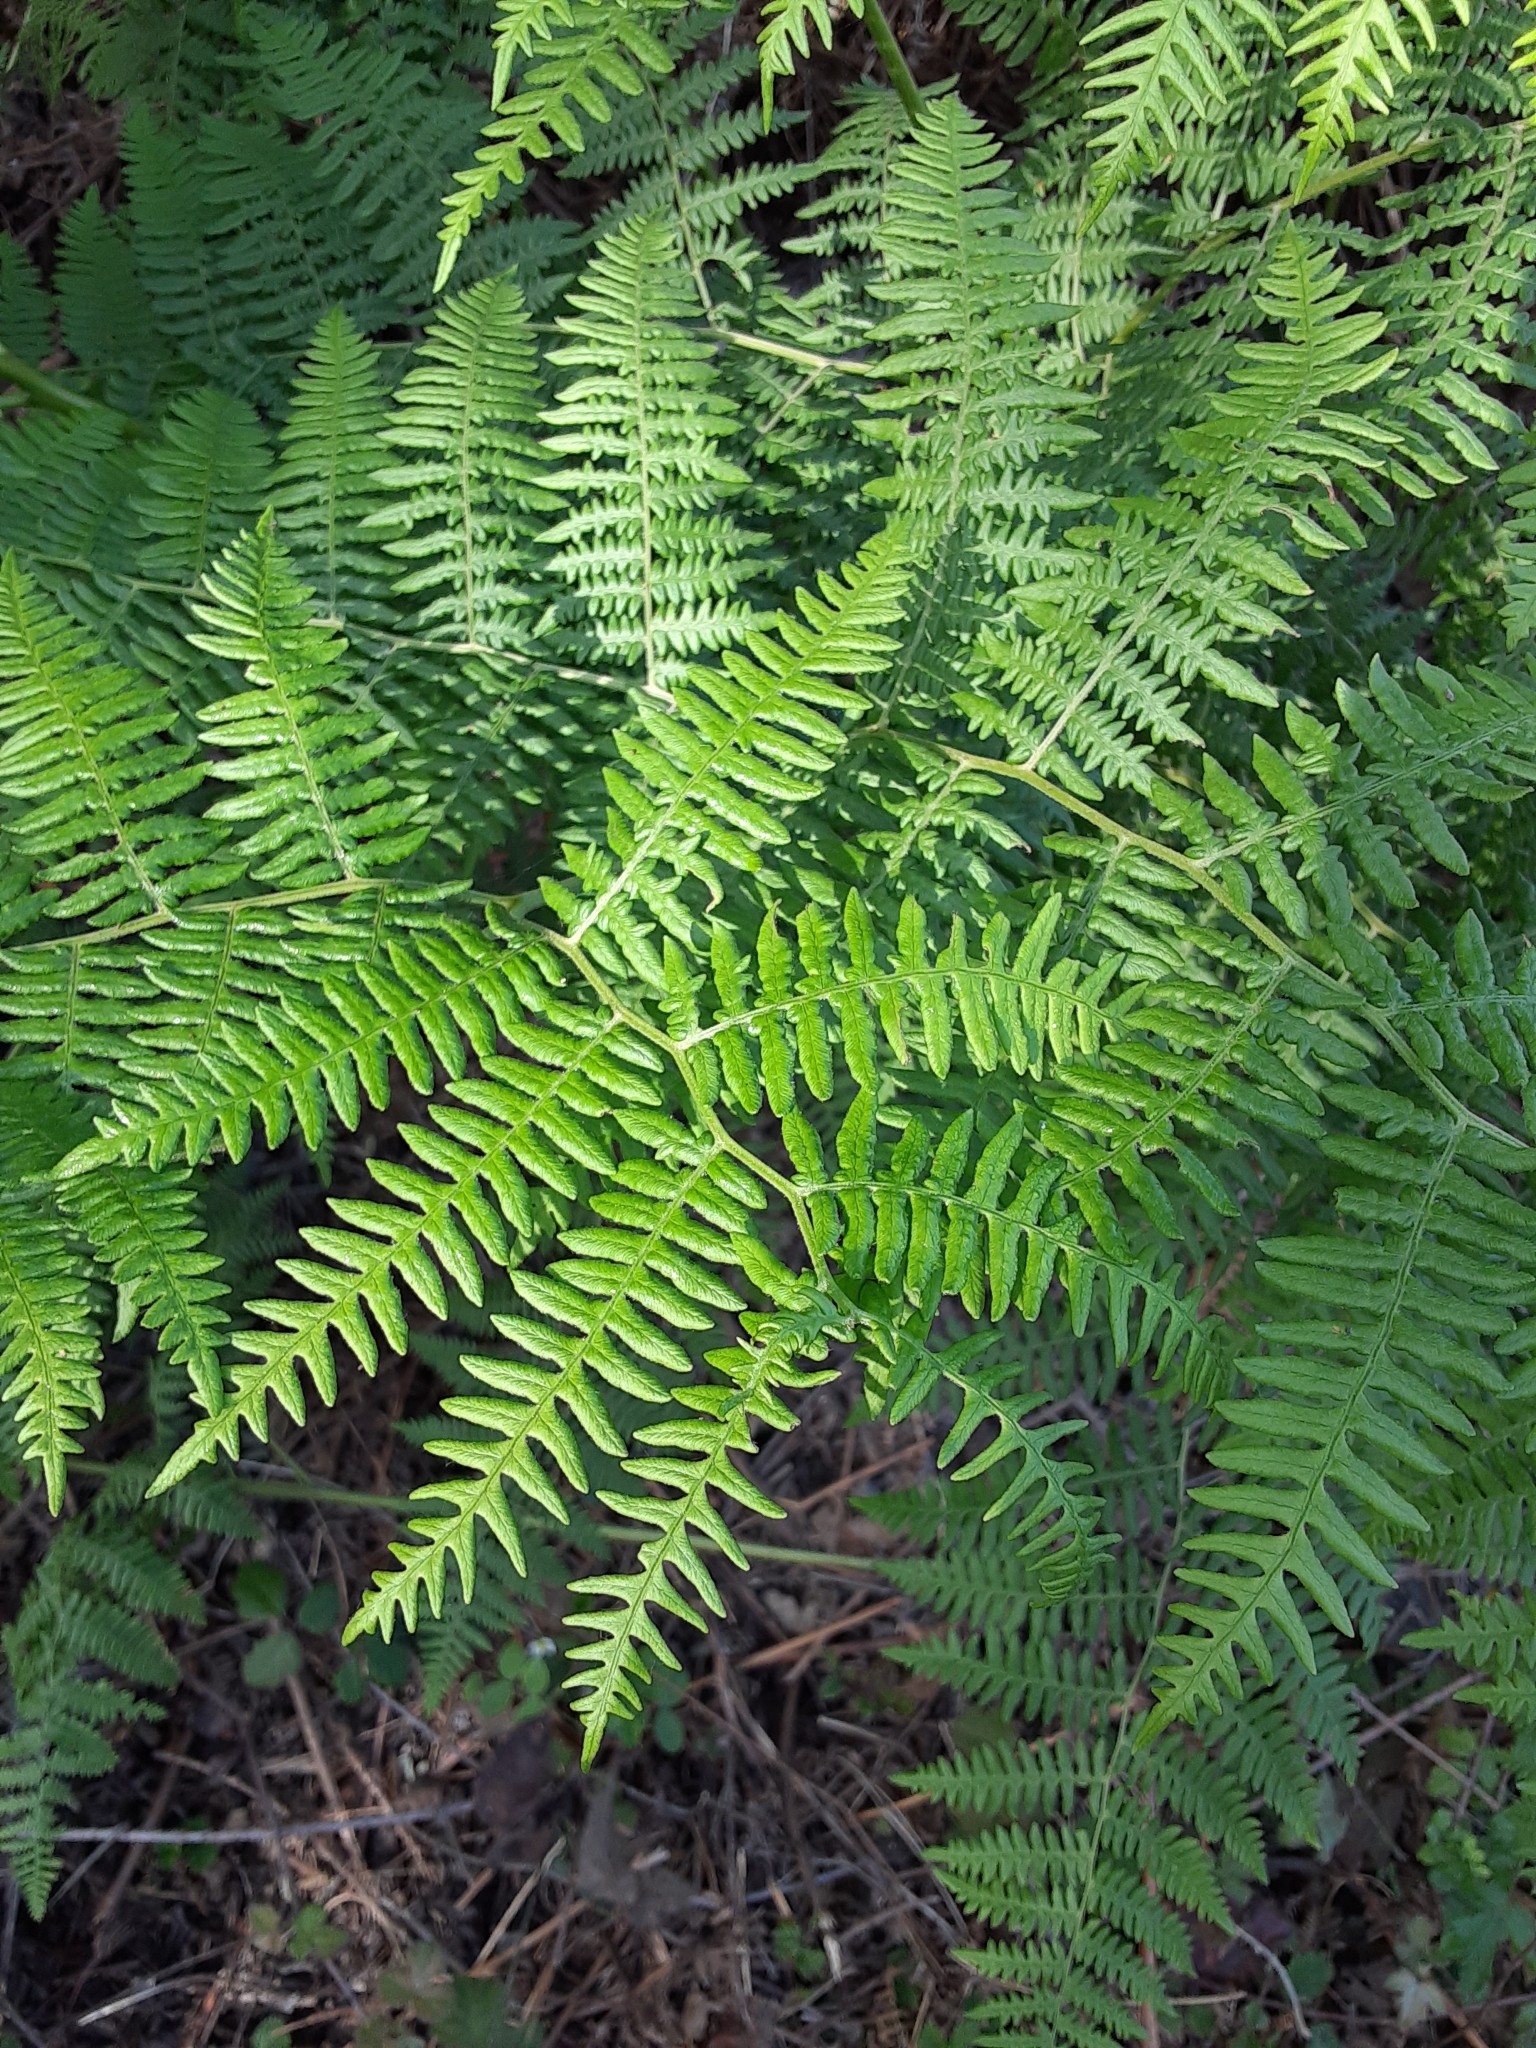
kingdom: Plantae
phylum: Tracheophyta
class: Polypodiopsida
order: Polypodiales
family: Dennstaedtiaceae
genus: Pteridium
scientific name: Pteridium aquilinum
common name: Bracken
